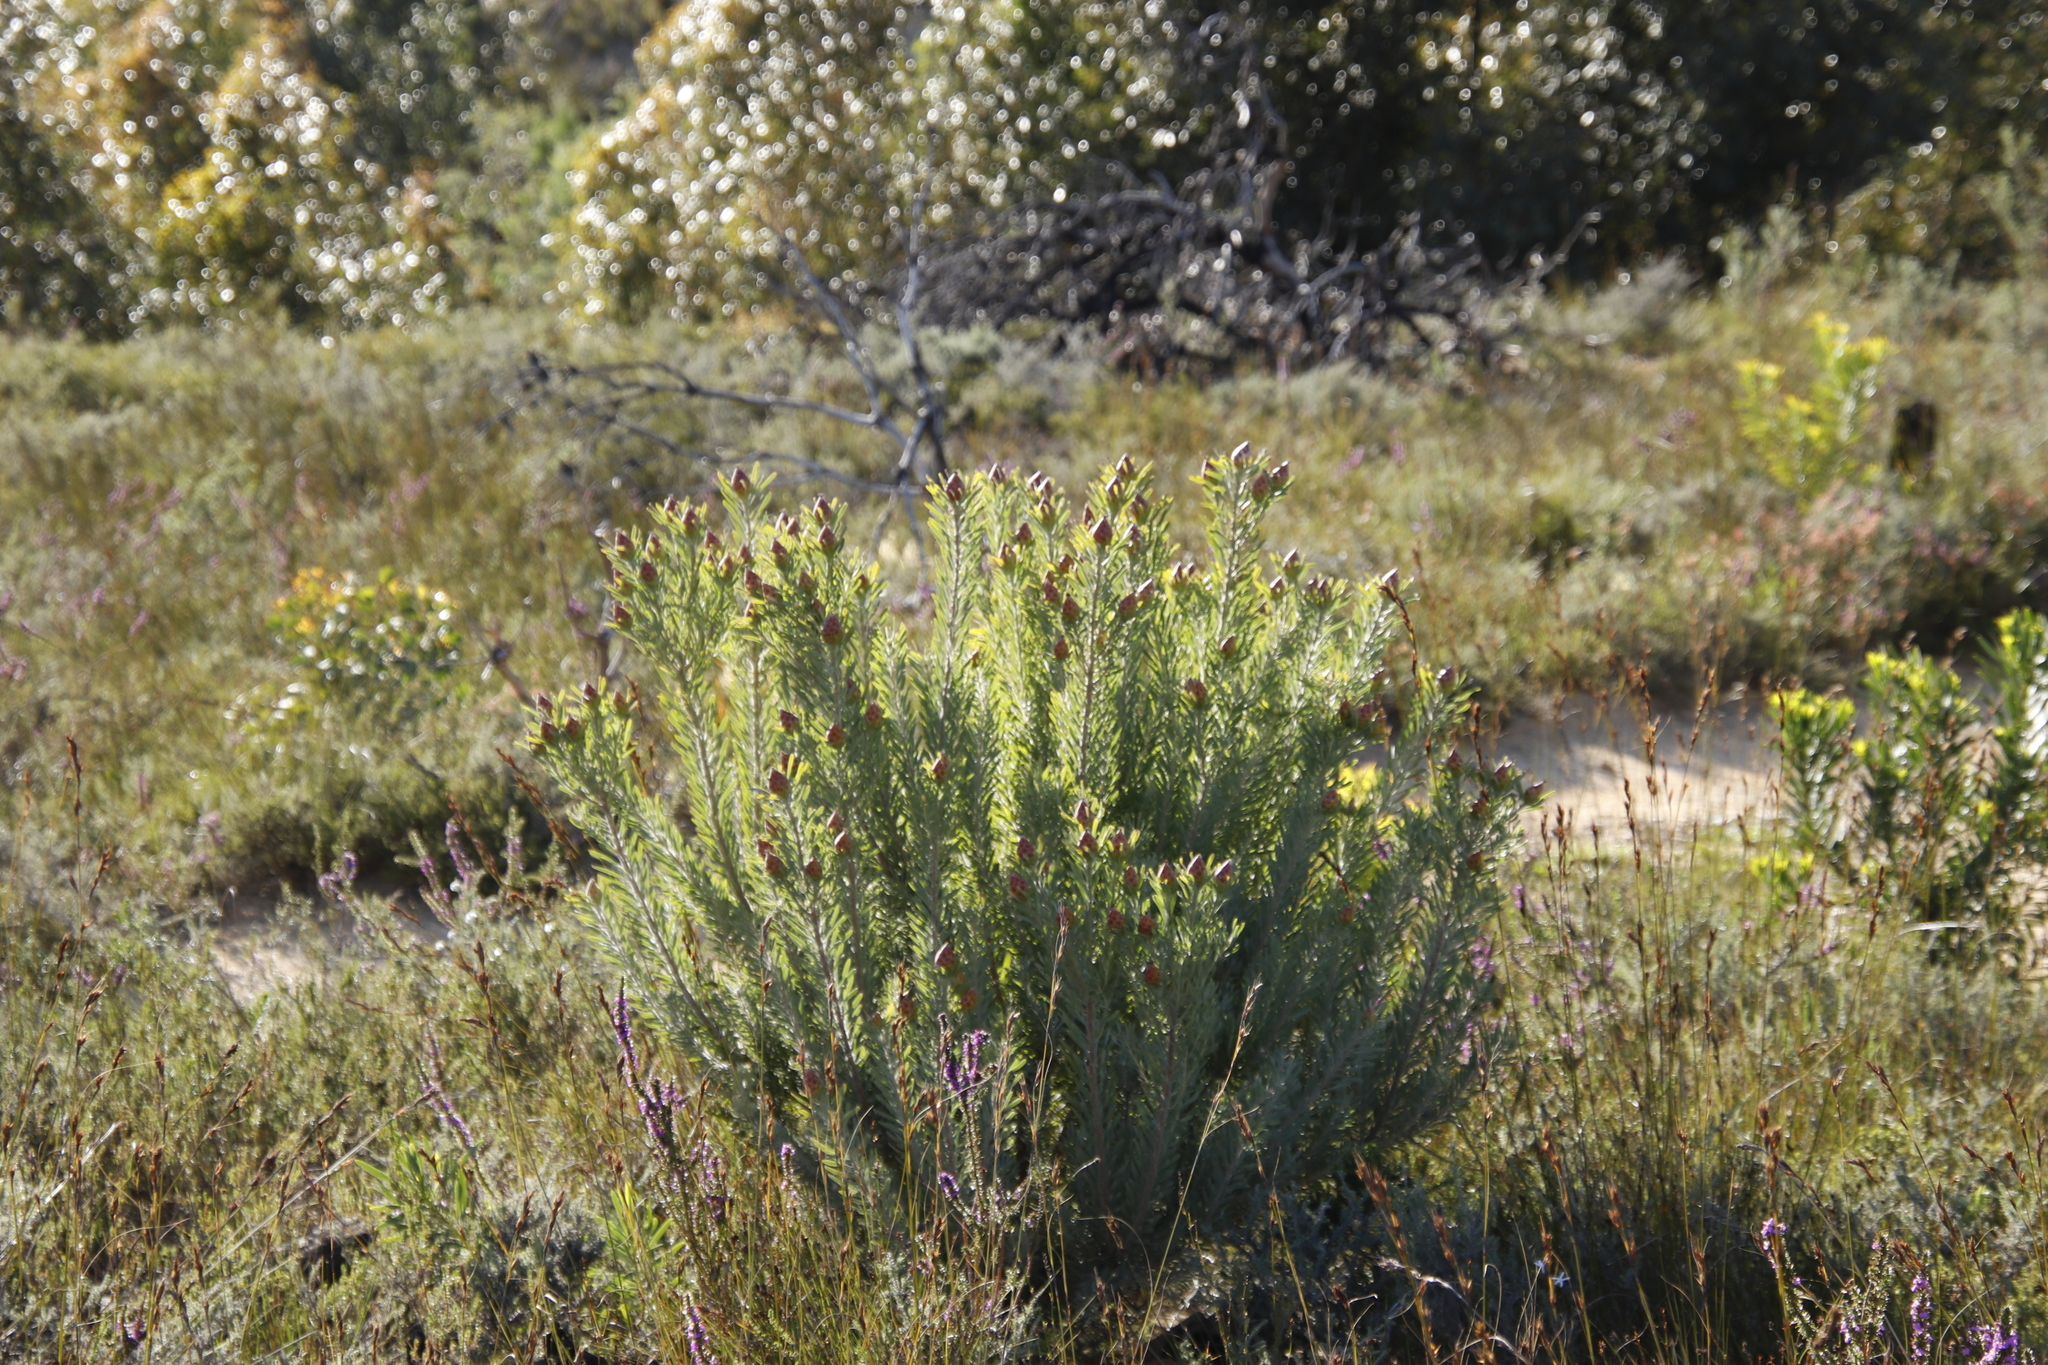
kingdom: Plantae
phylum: Tracheophyta
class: Magnoliopsida
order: Proteales
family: Proteaceae
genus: Leucadendron
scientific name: Leucadendron rubrum
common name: Spinning top
